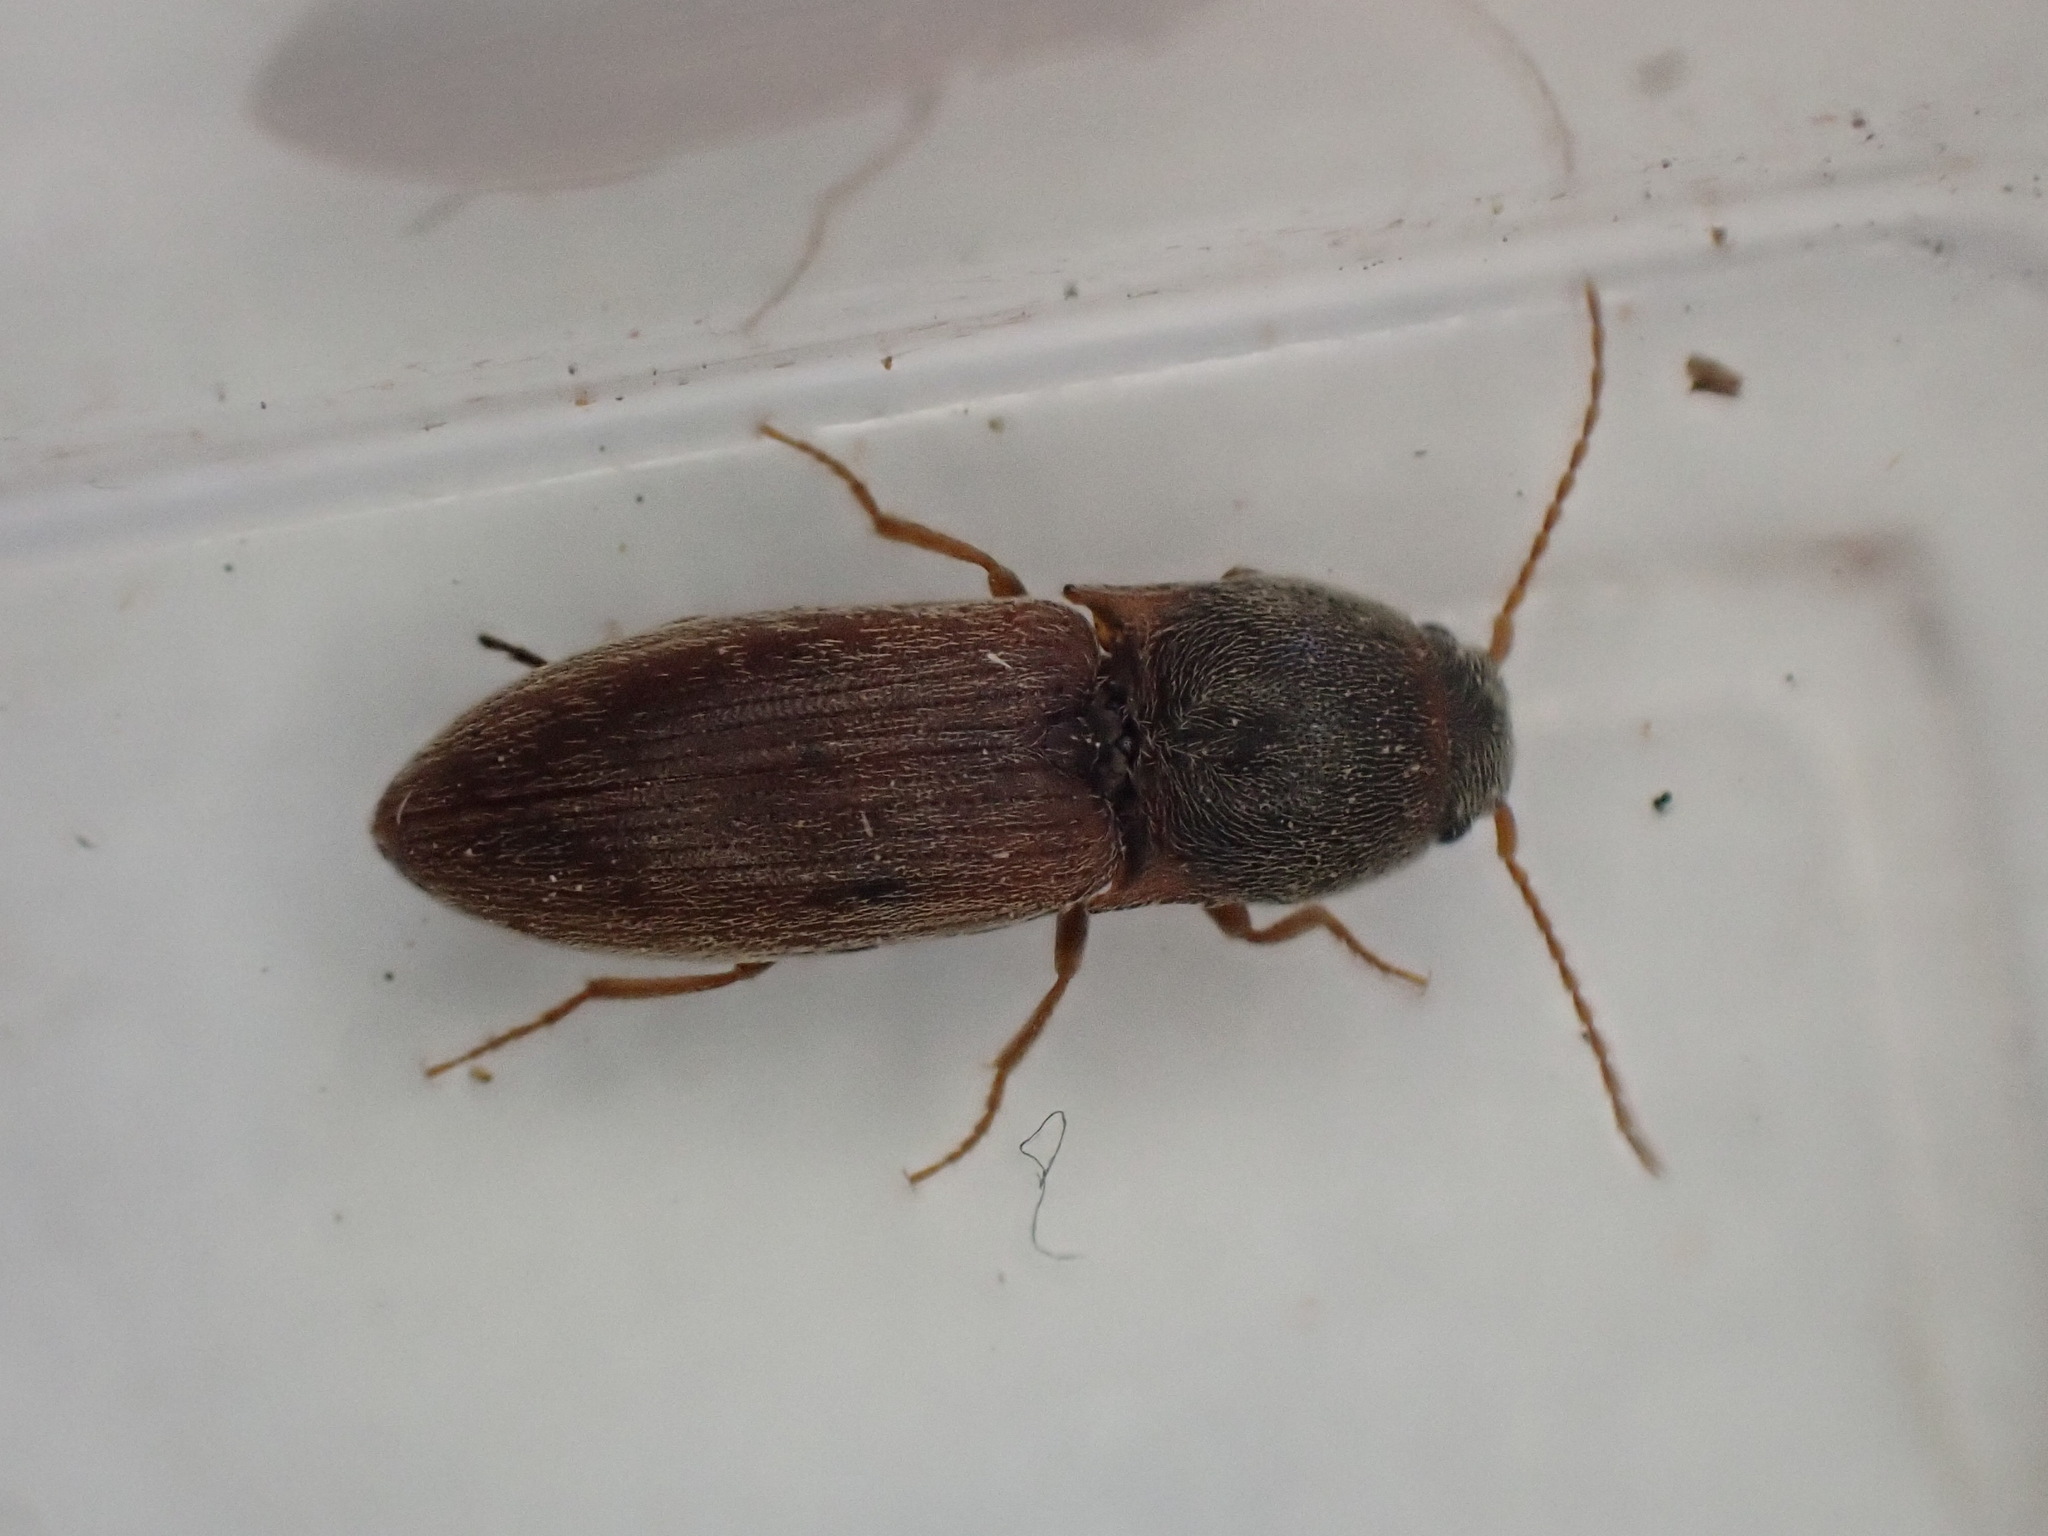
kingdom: Animalia
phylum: Arthropoda
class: Insecta
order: Coleoptera
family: Elateridae
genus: Agriotes
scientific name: Agriotes sputator
